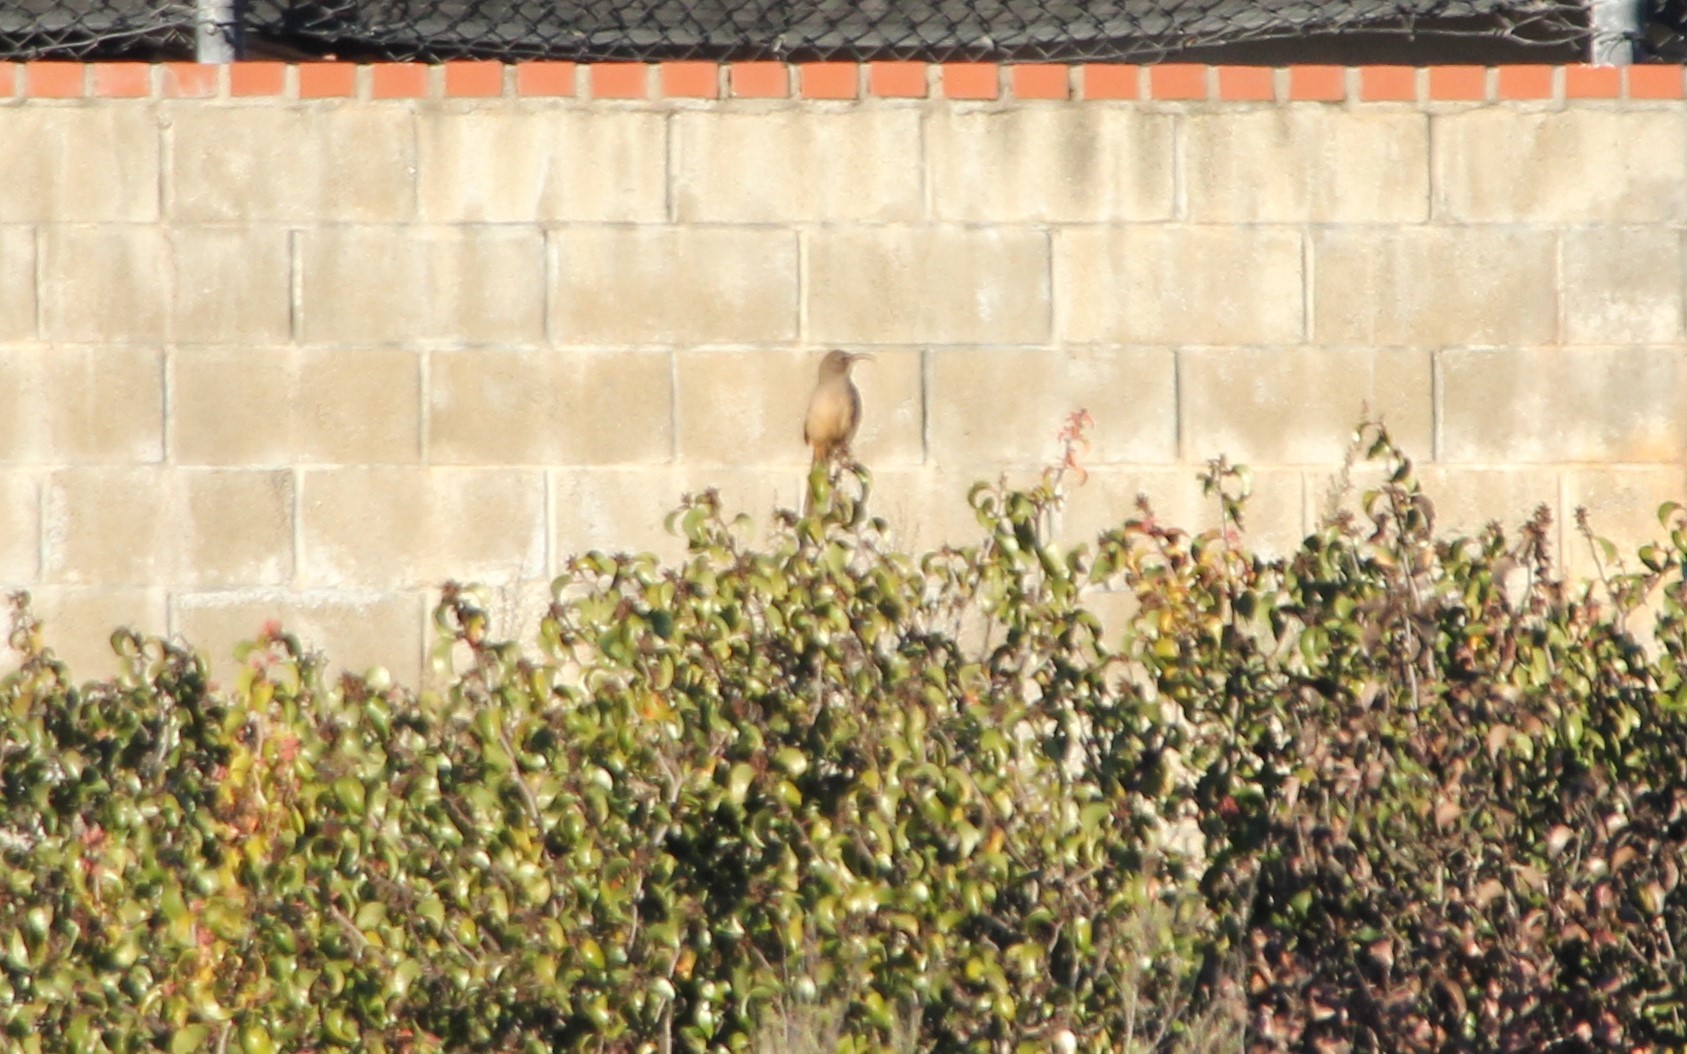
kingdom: Animalia
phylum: Chordata
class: Aves
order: Passeriformes
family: Mimidae
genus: Toxostoma
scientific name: Toxostoma redivivum
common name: California thrasher
